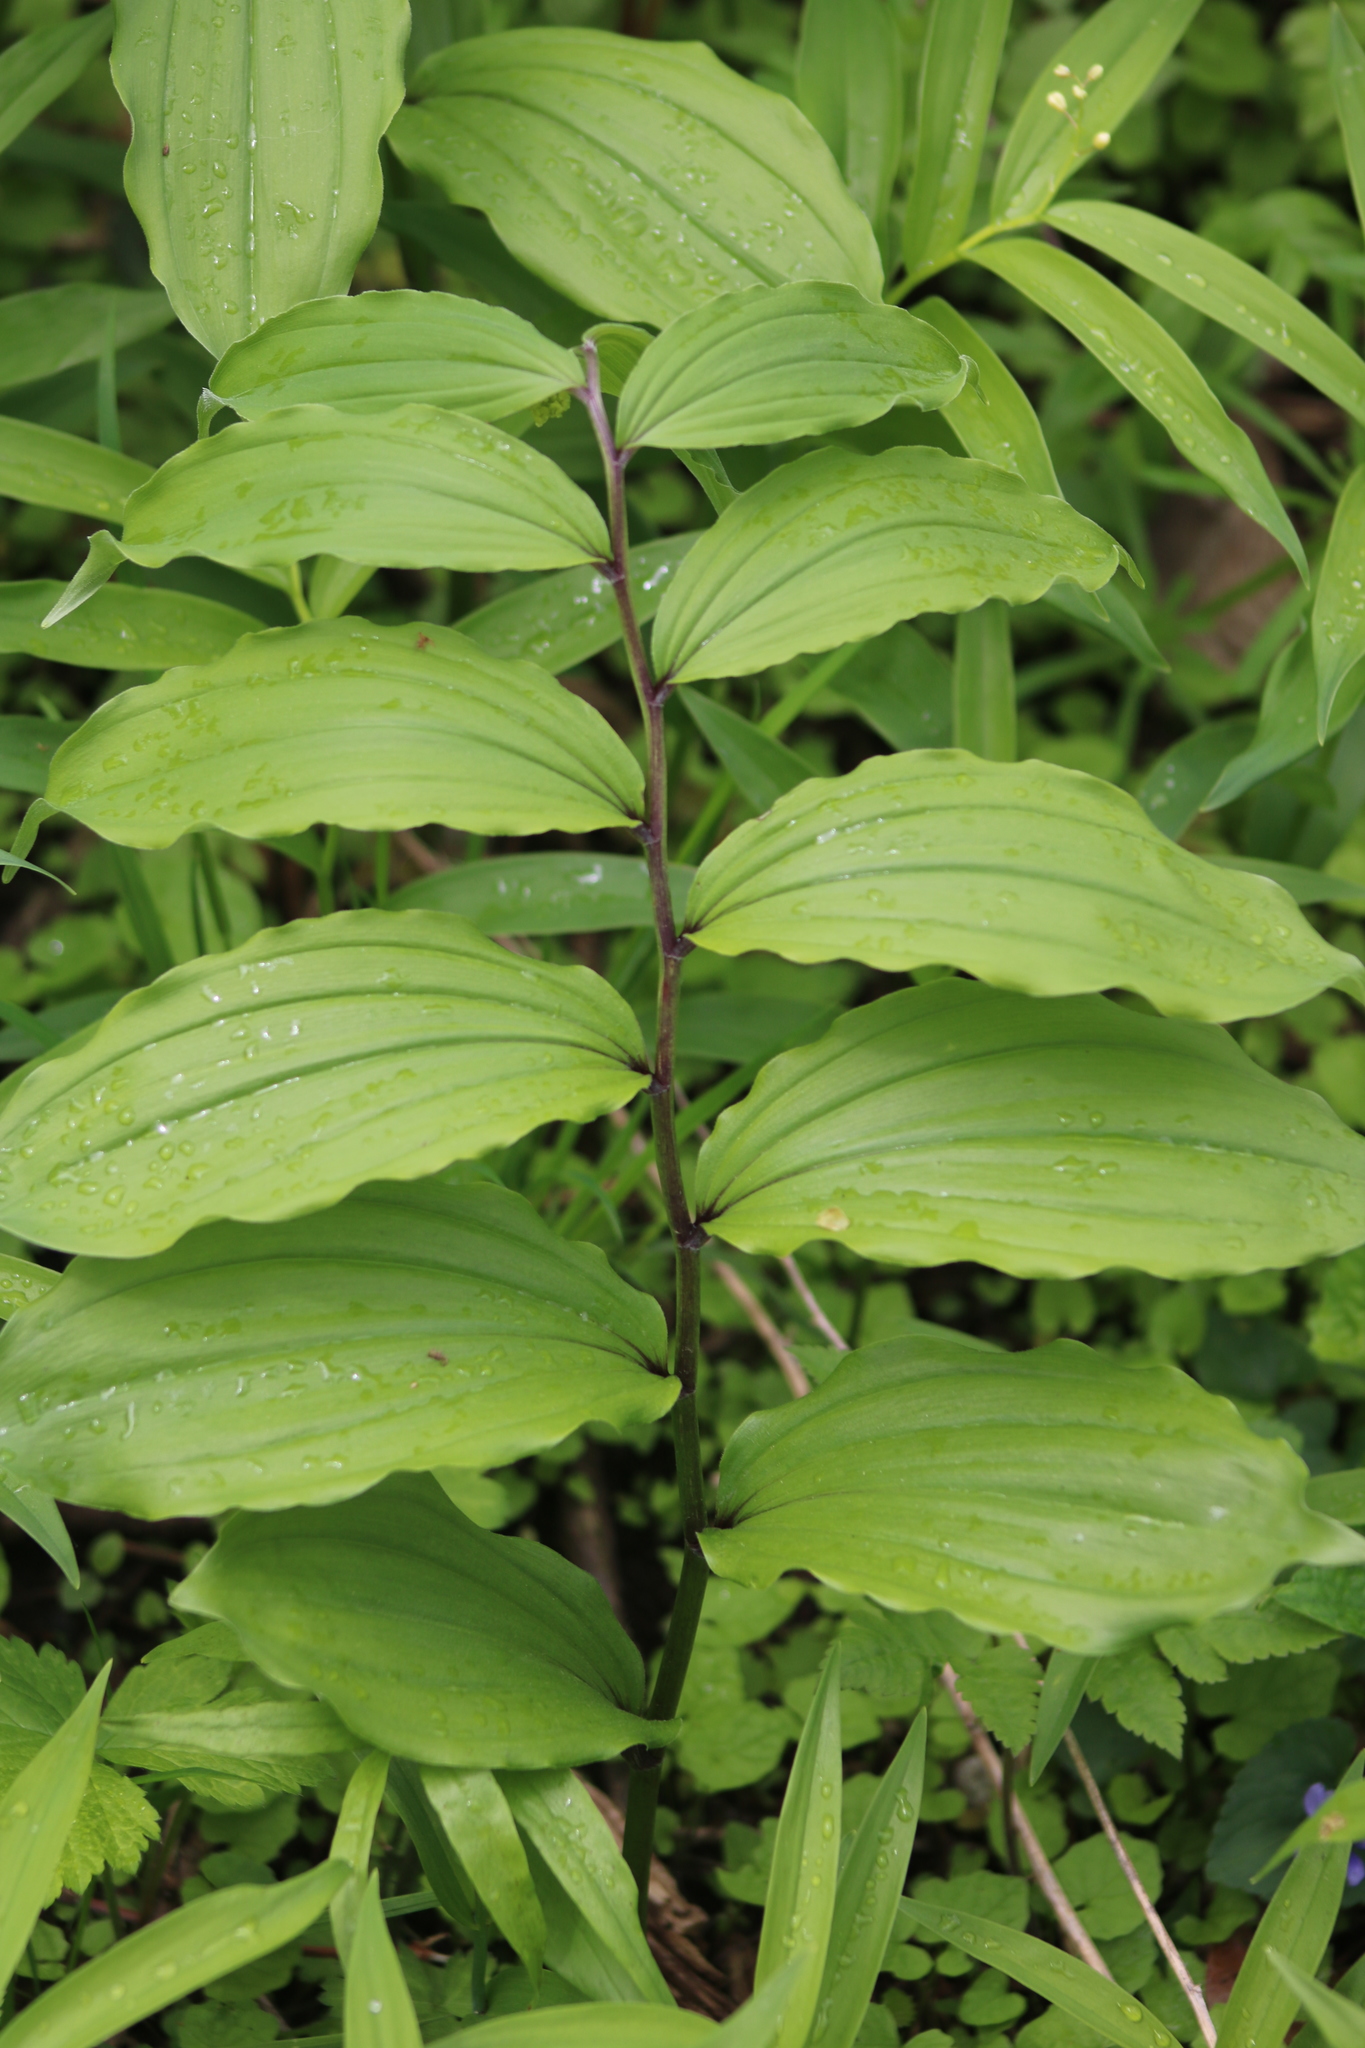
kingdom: Plantae
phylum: Tracheophyta
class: Liliopsida
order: Asparagales
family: Asparagaceae
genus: Maianthemum
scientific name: Maianthemum racemosum
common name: False spikenard
